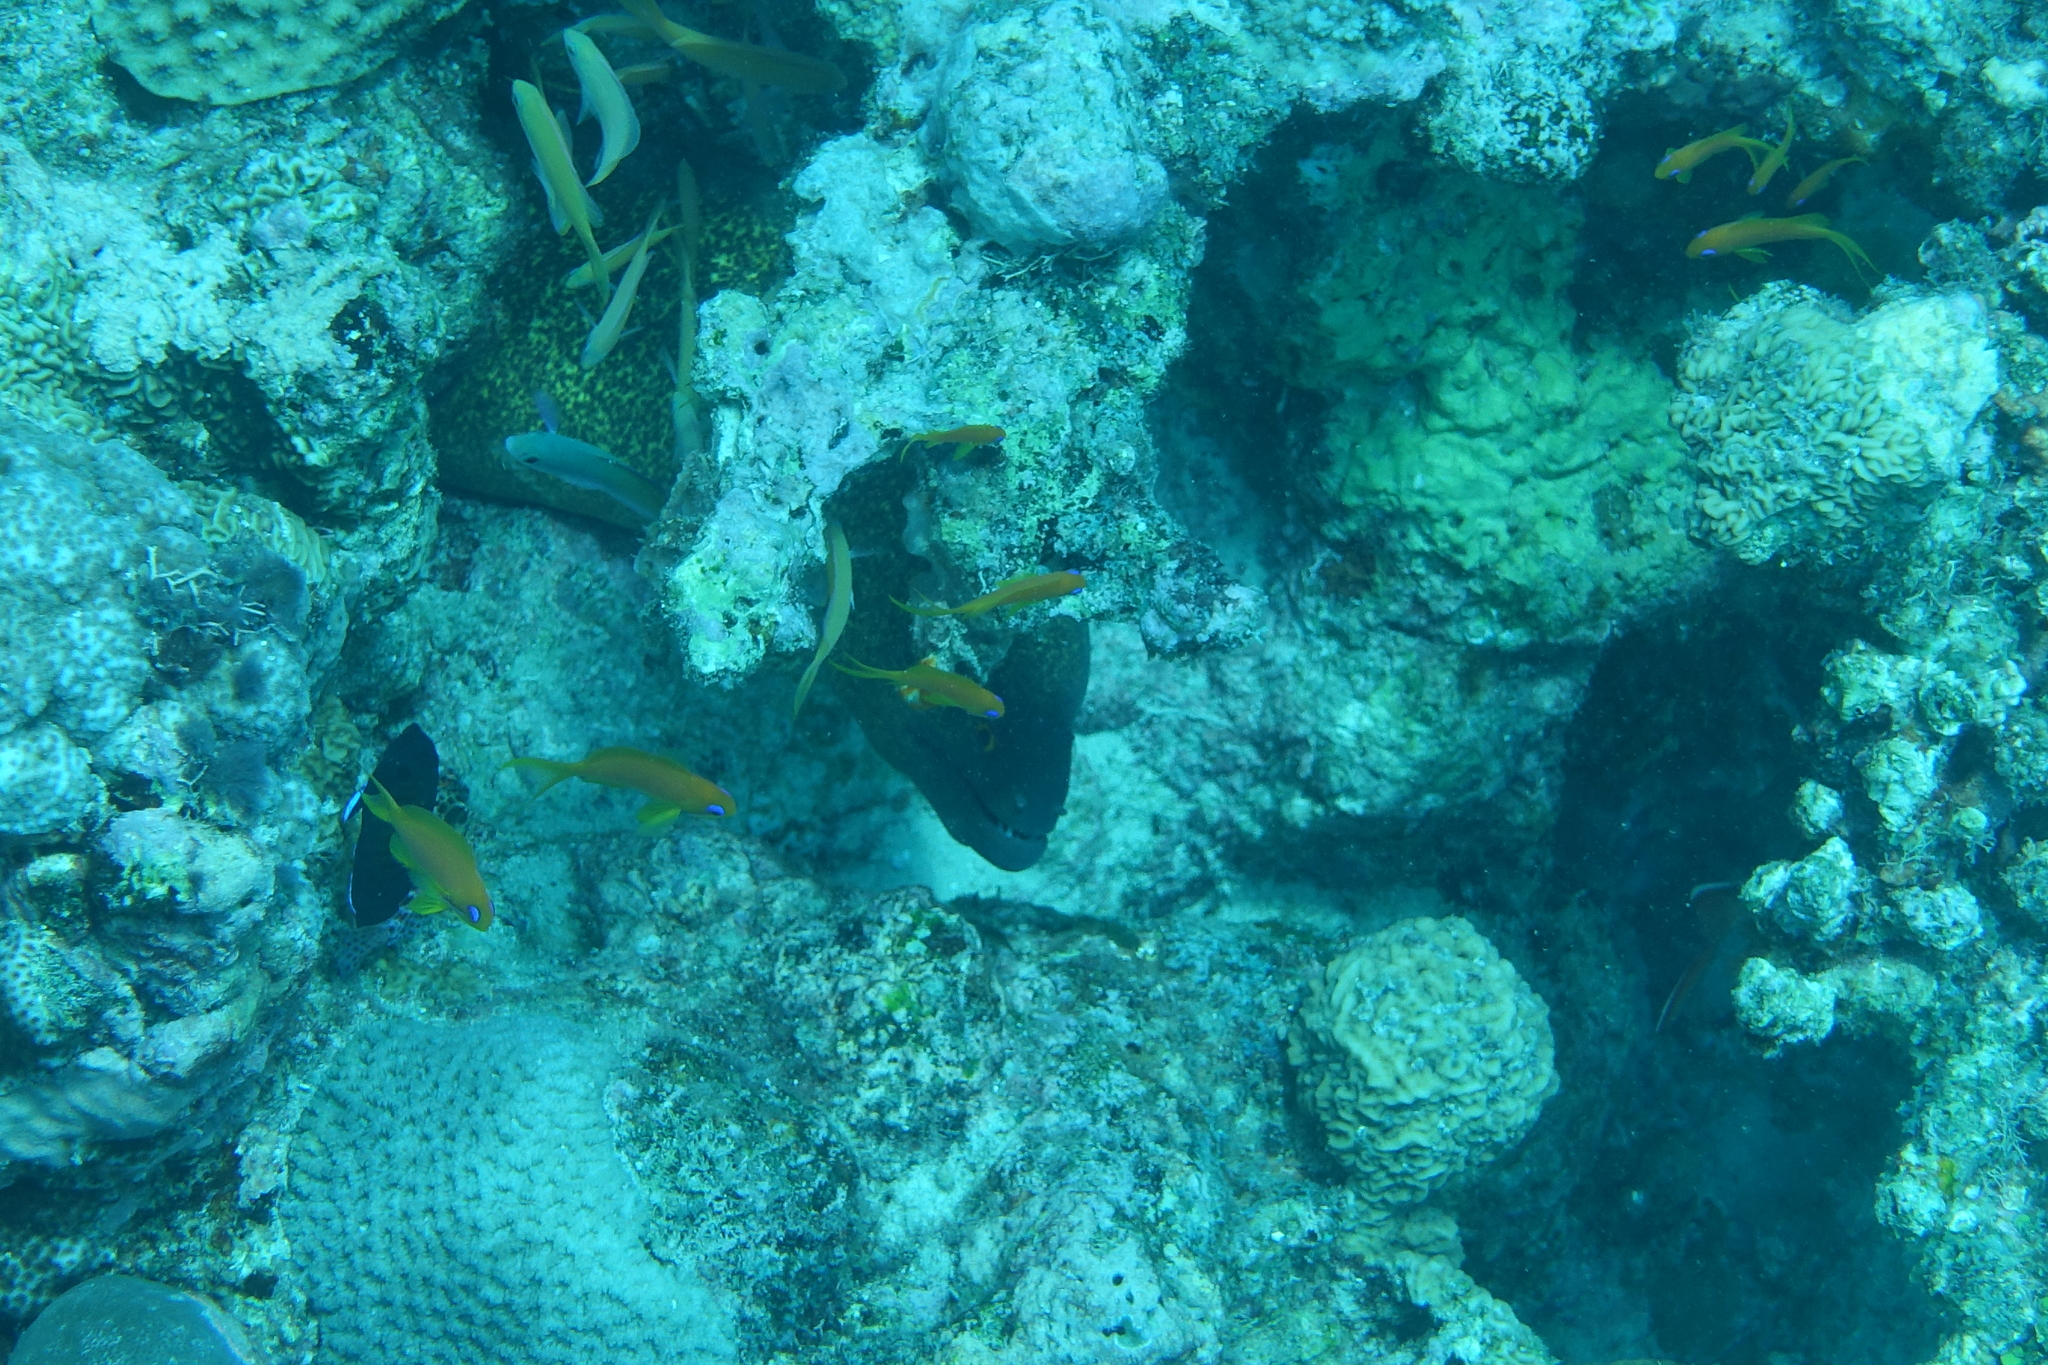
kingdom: Animalia
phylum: Chordata
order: Anguilliformes
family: Muraenidae
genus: Gymnothorax
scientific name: Gymnothorax flavimarginatus
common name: Yellow-edged moray
